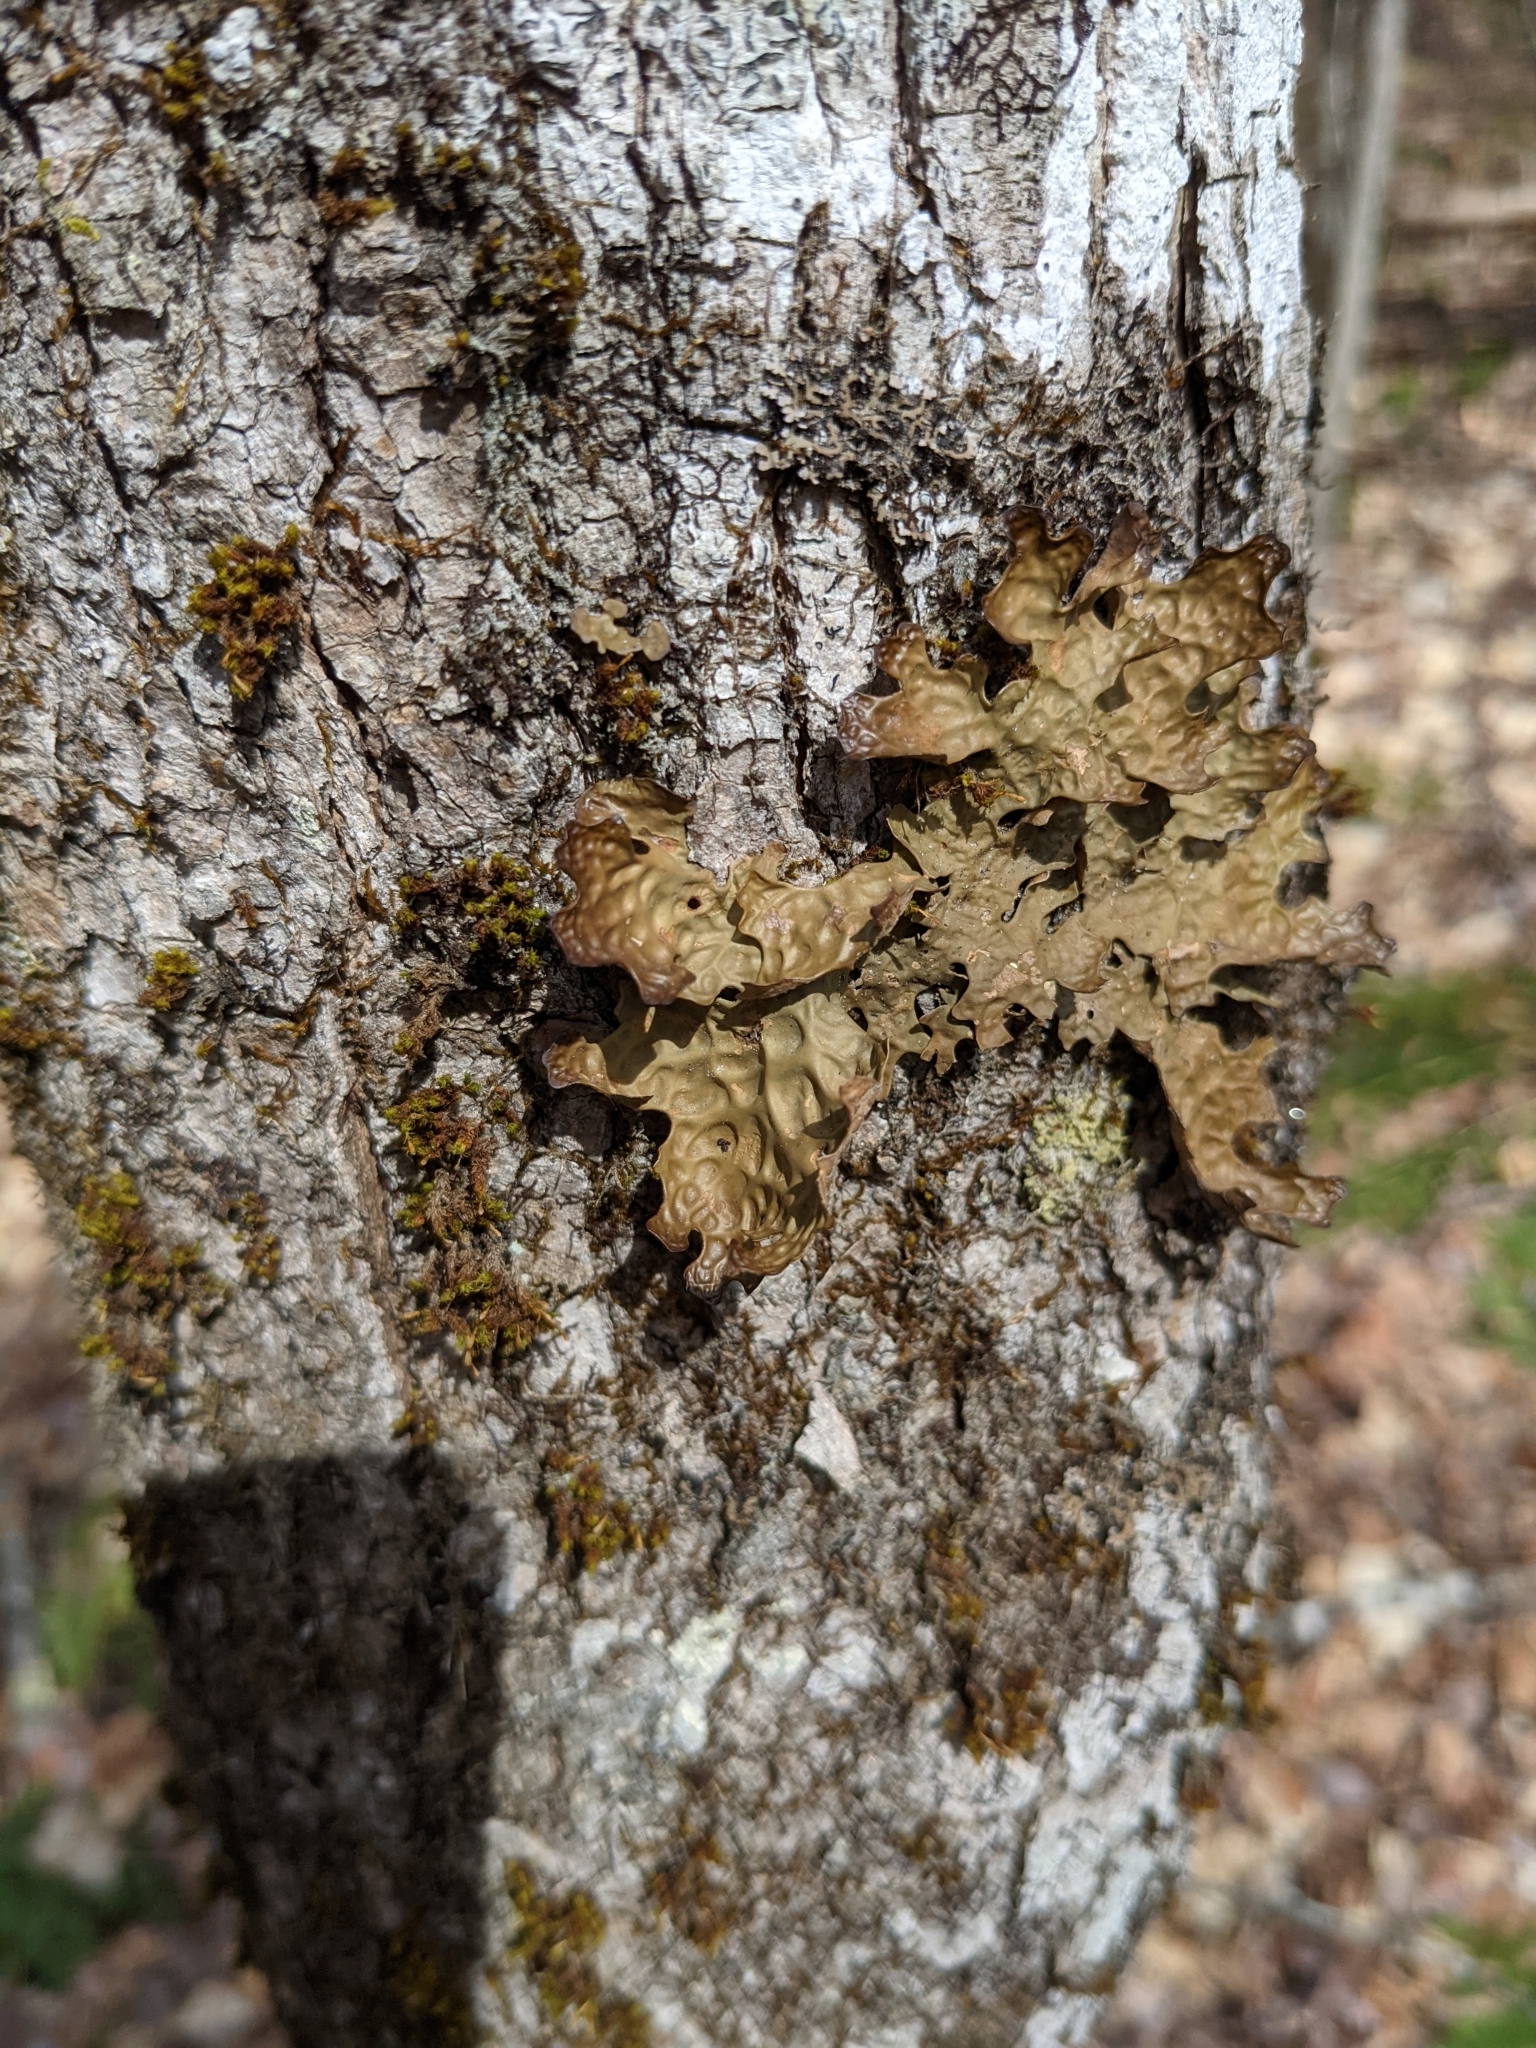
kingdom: Fungi
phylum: Ascomycota
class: Lecanoromycetes
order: Peltigerales
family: Lobariaceae
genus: Lobaria
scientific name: Lobaria pulmonaria
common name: Lungwort
